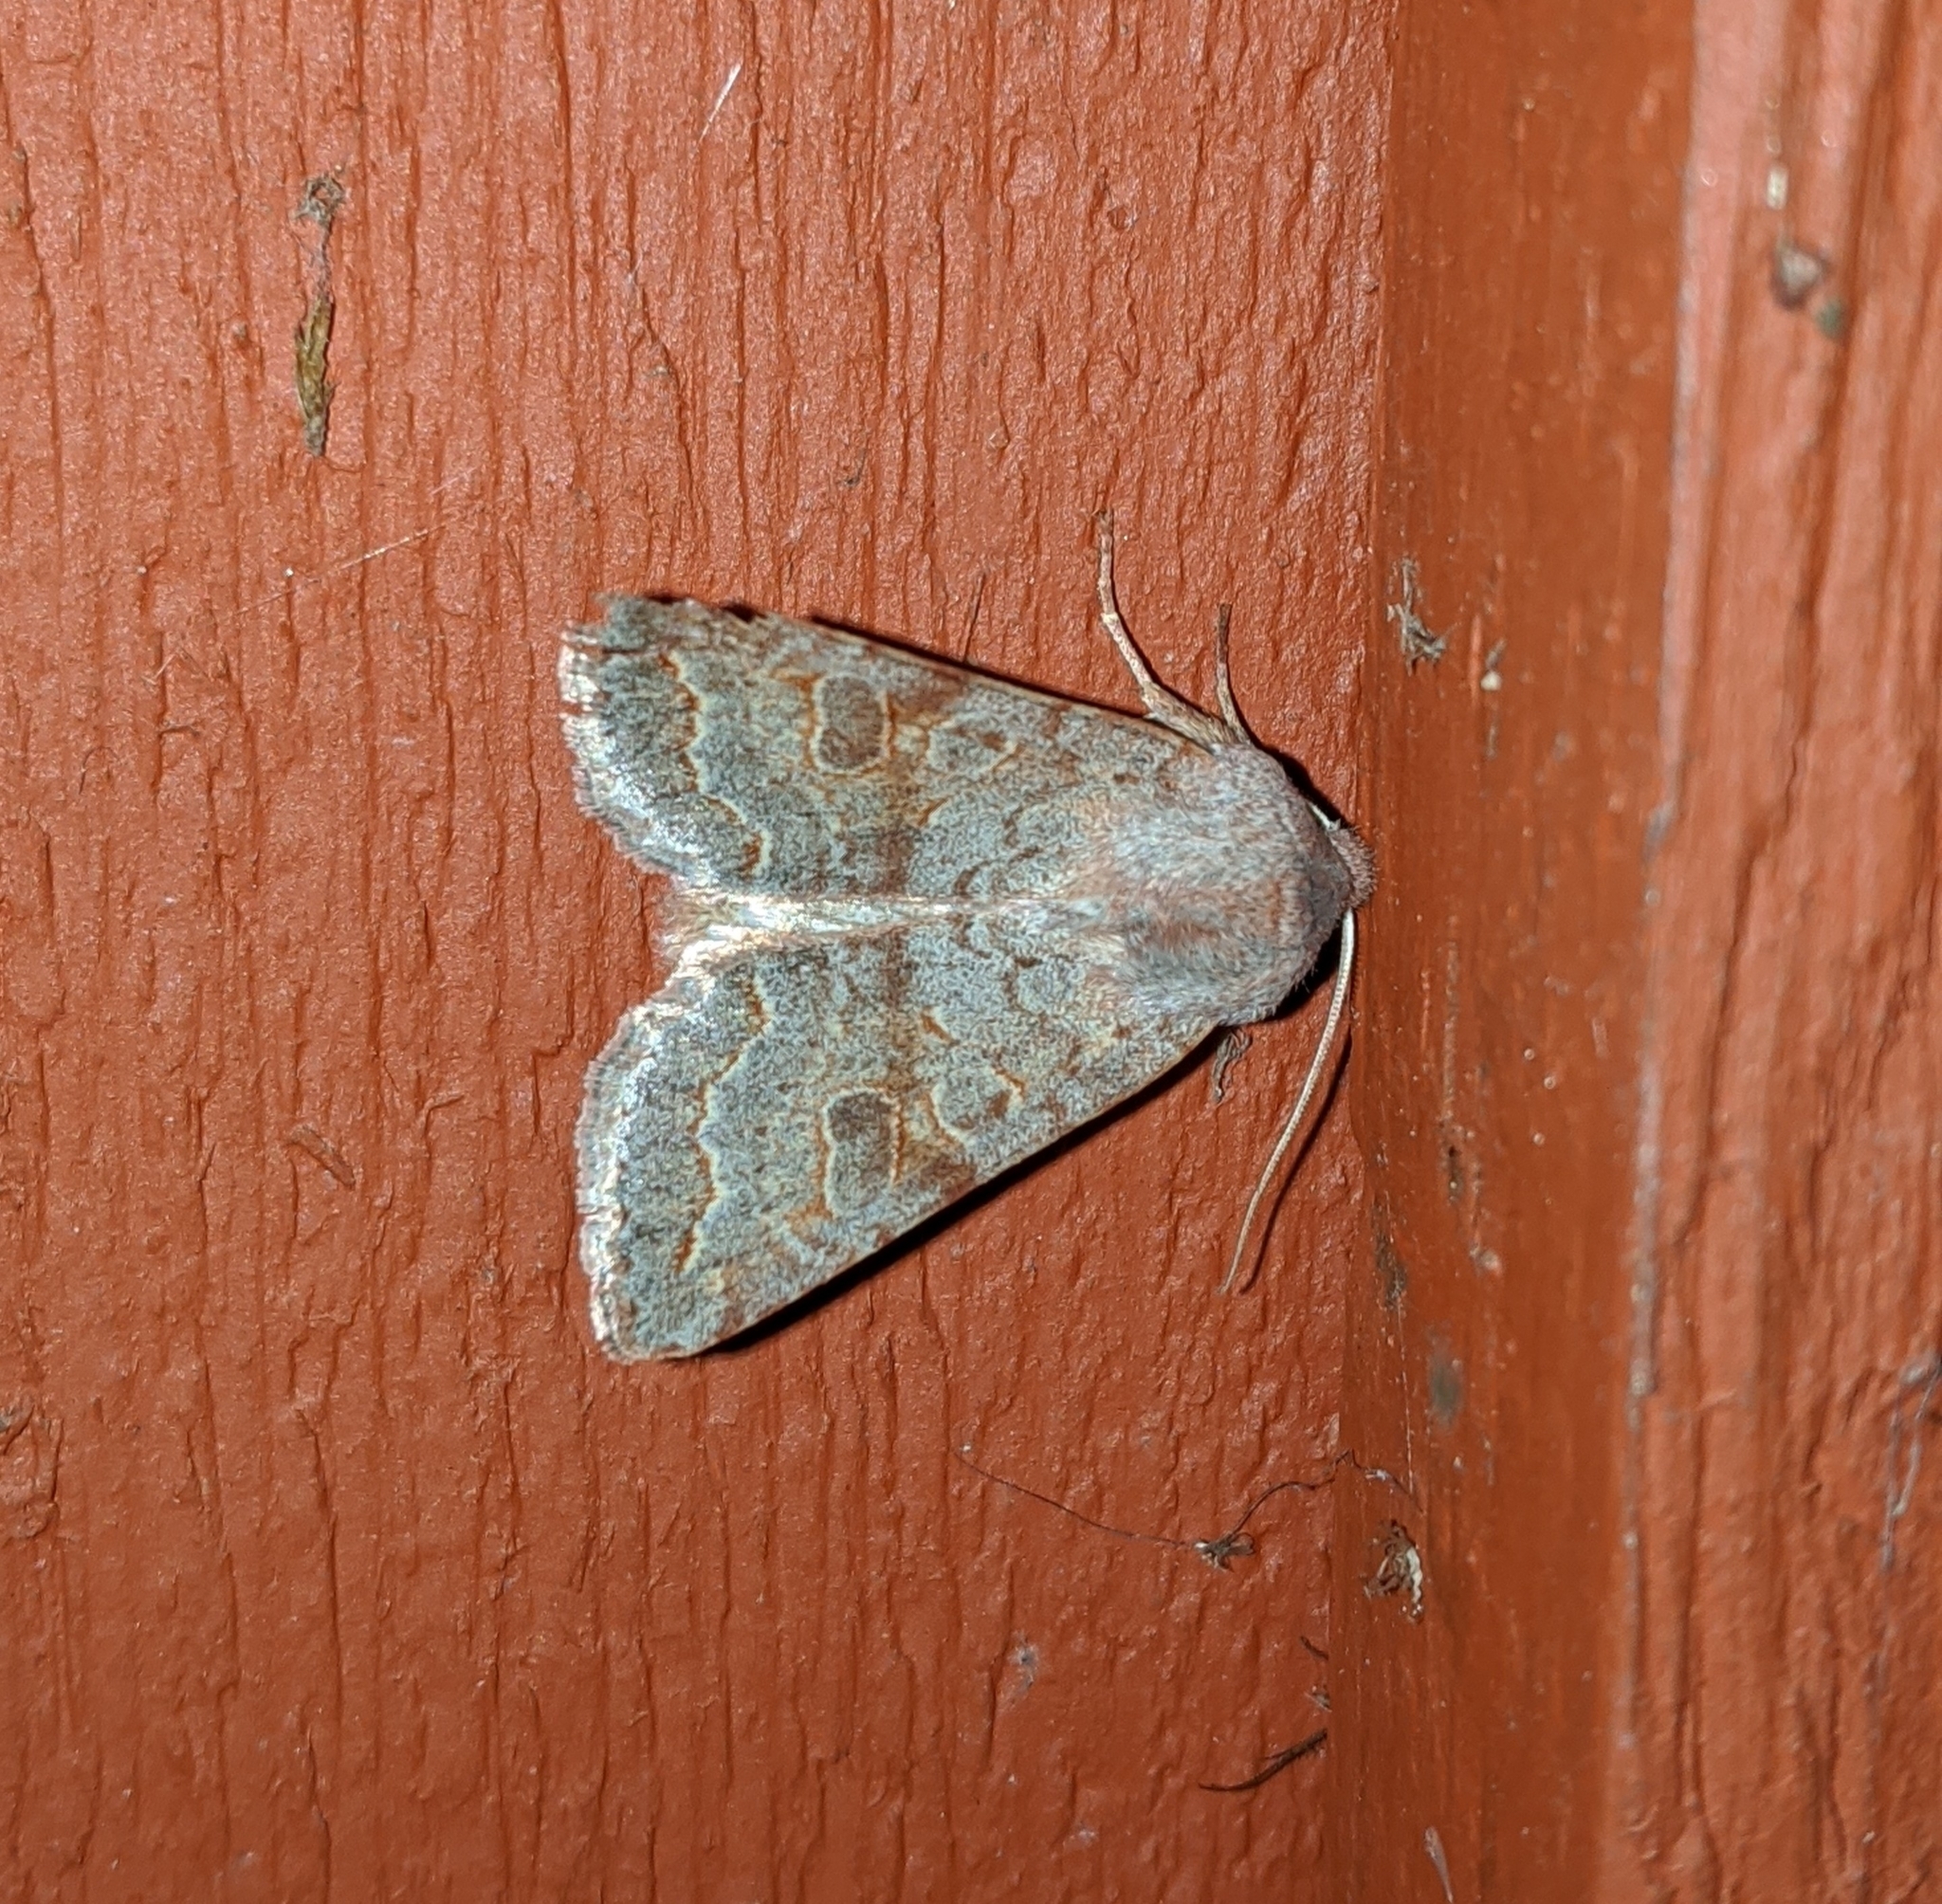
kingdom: Animalia
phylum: Arthropoda
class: Insecta
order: Lepidoptera
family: Noctuidae
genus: Orthosia
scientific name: Orthosia revicta
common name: Rusty whitesided caterpillar
